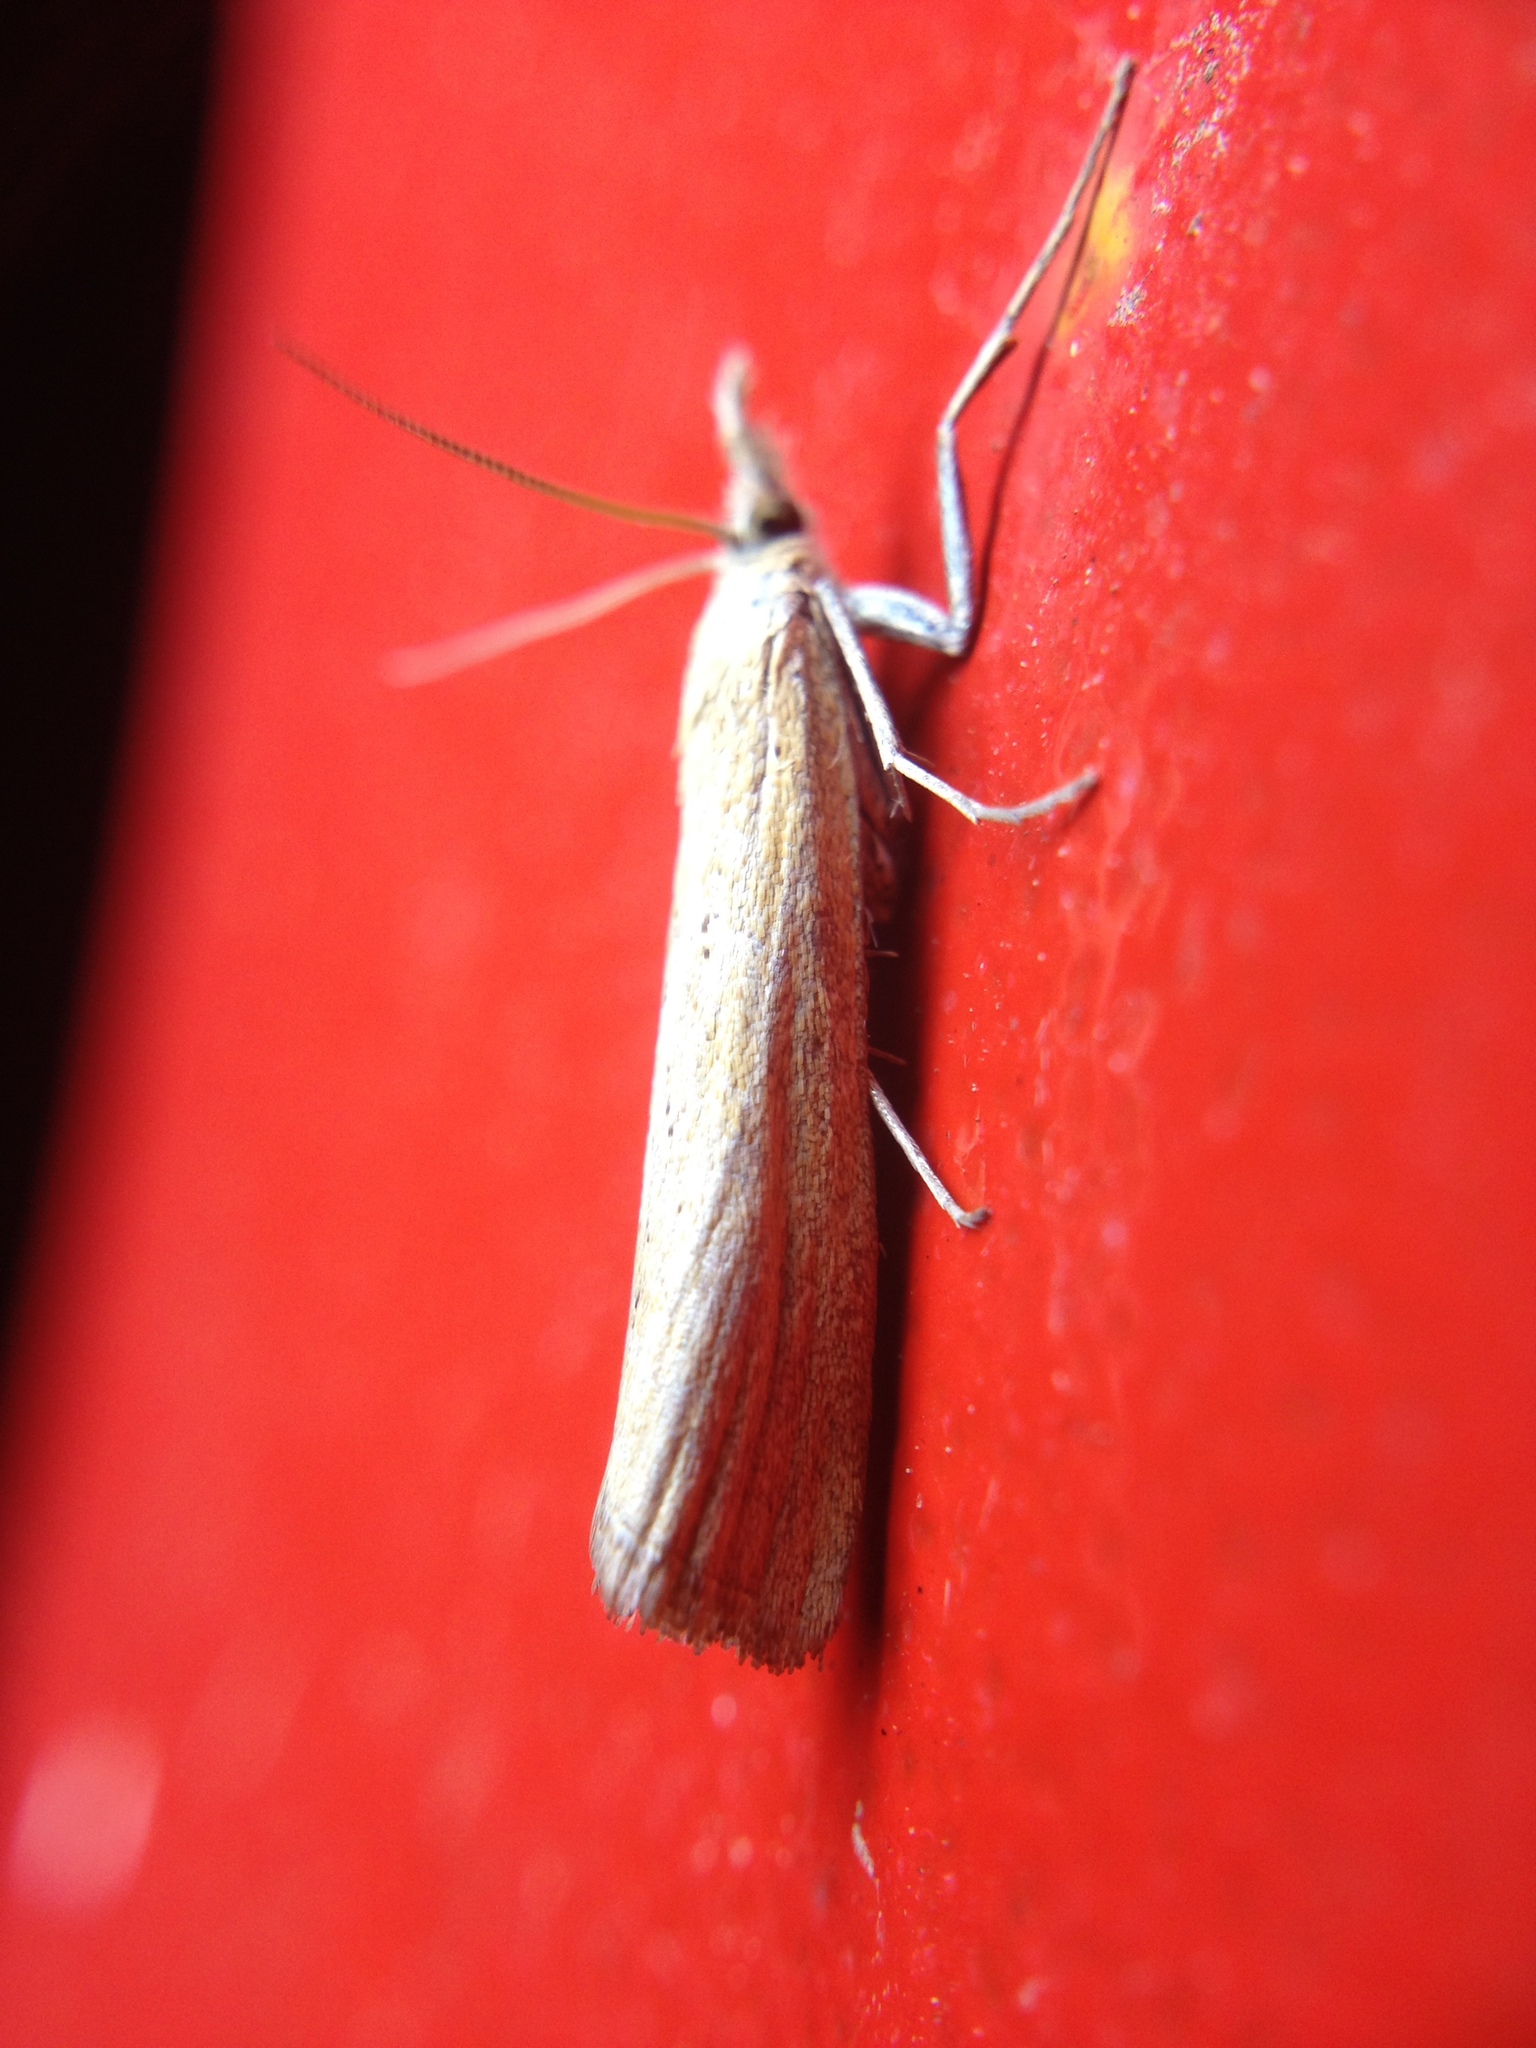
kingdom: Animalia
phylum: Arthropoda
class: Insecta
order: Lepidoptera
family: Crambidae
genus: Pediasia
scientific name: Pediasia luteella
